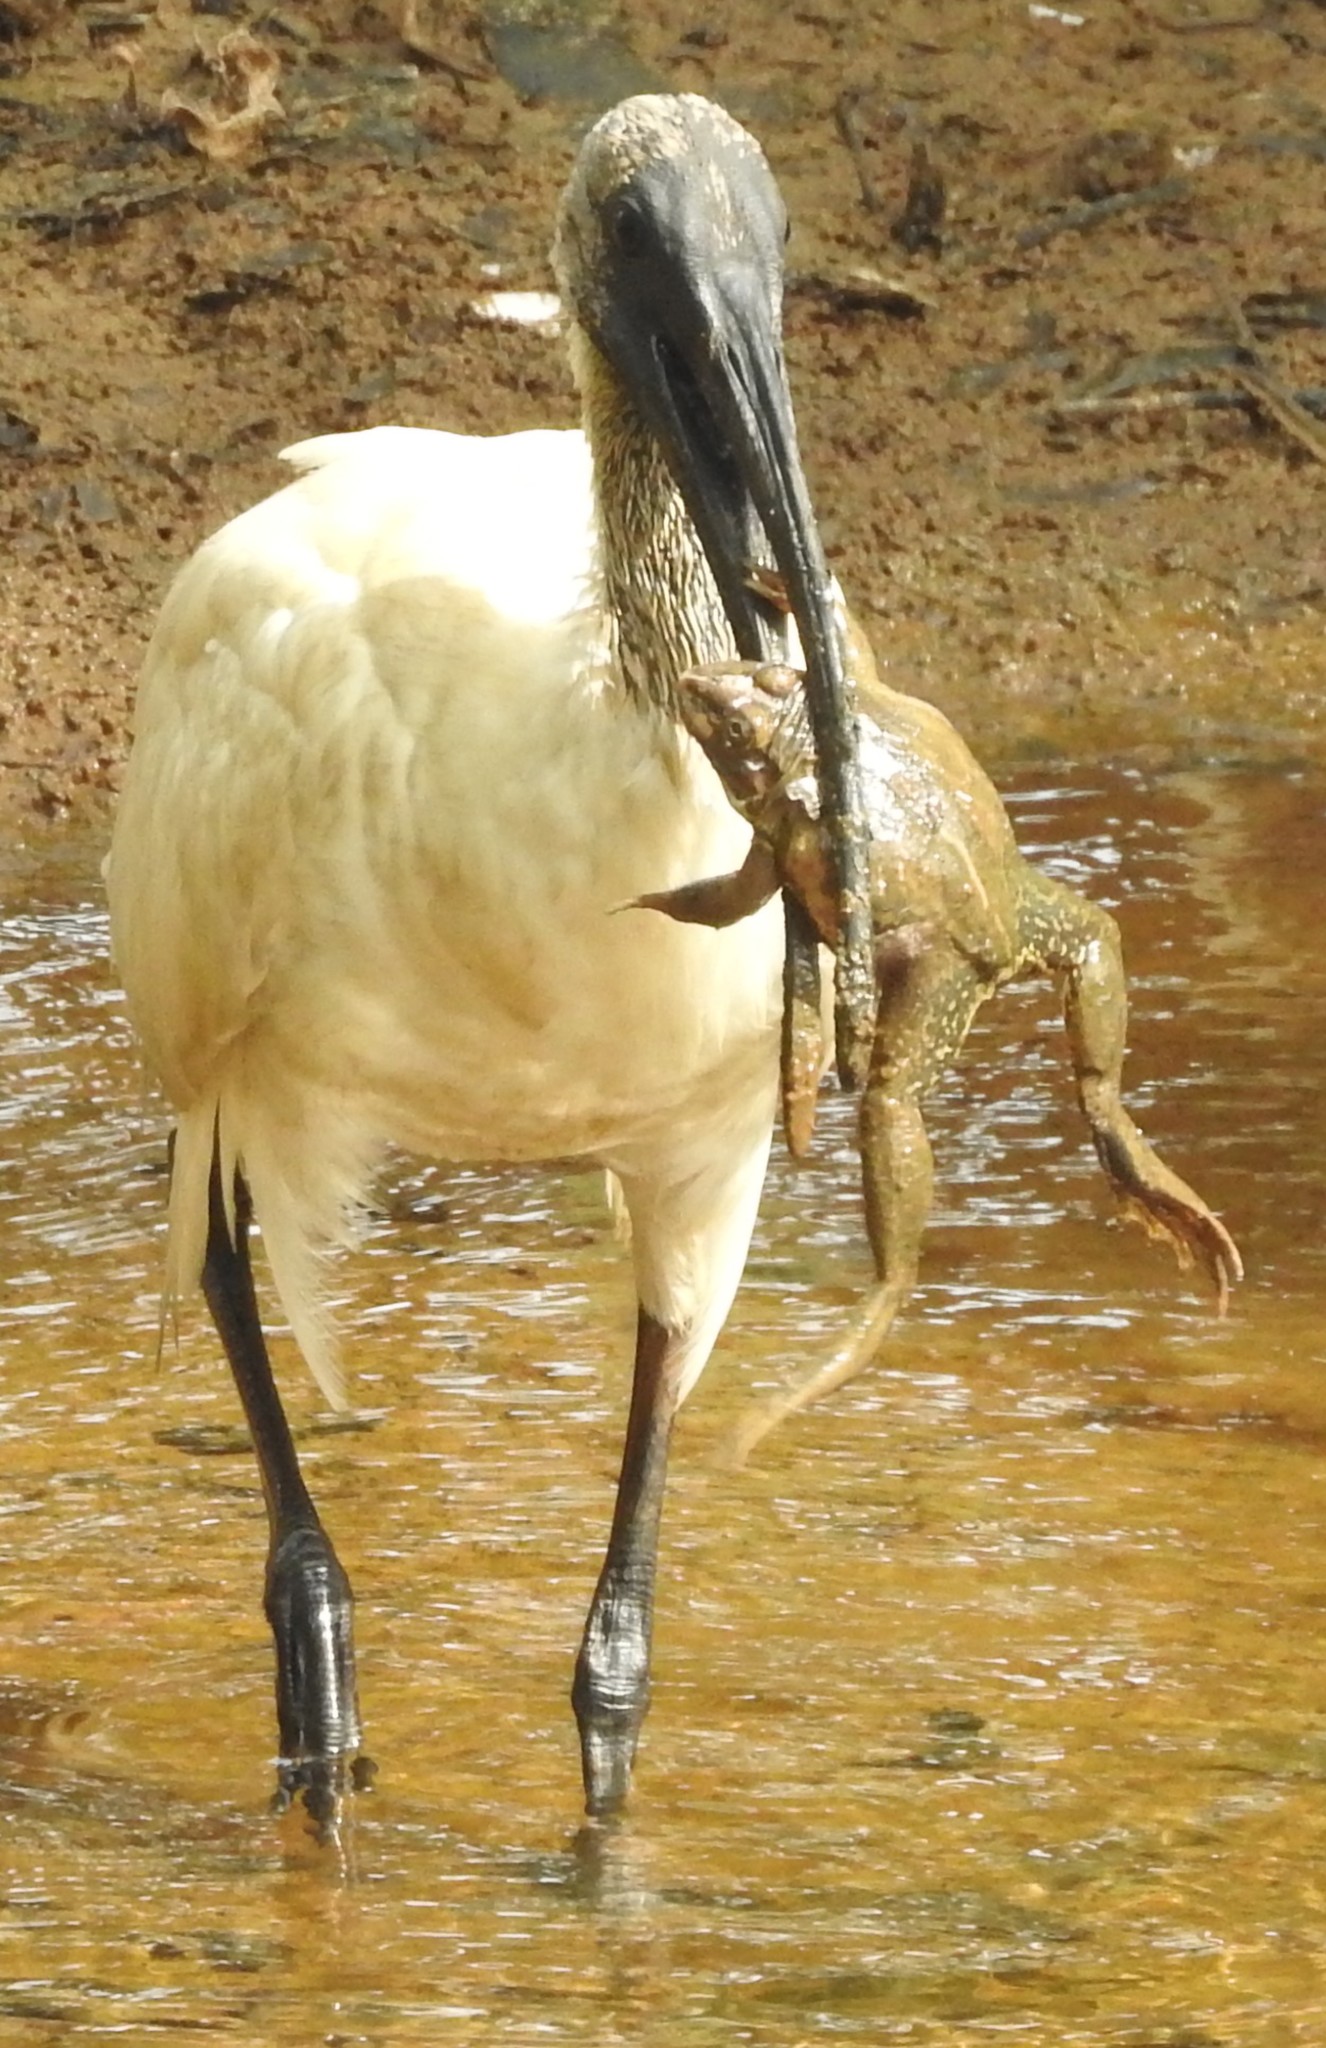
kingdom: Animalia
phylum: Chordata
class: Aves
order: Pelecaniformes
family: Threskiornithidae
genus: Threskiornis
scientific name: Threskiornis melanocephalus
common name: Black-headed ibis
